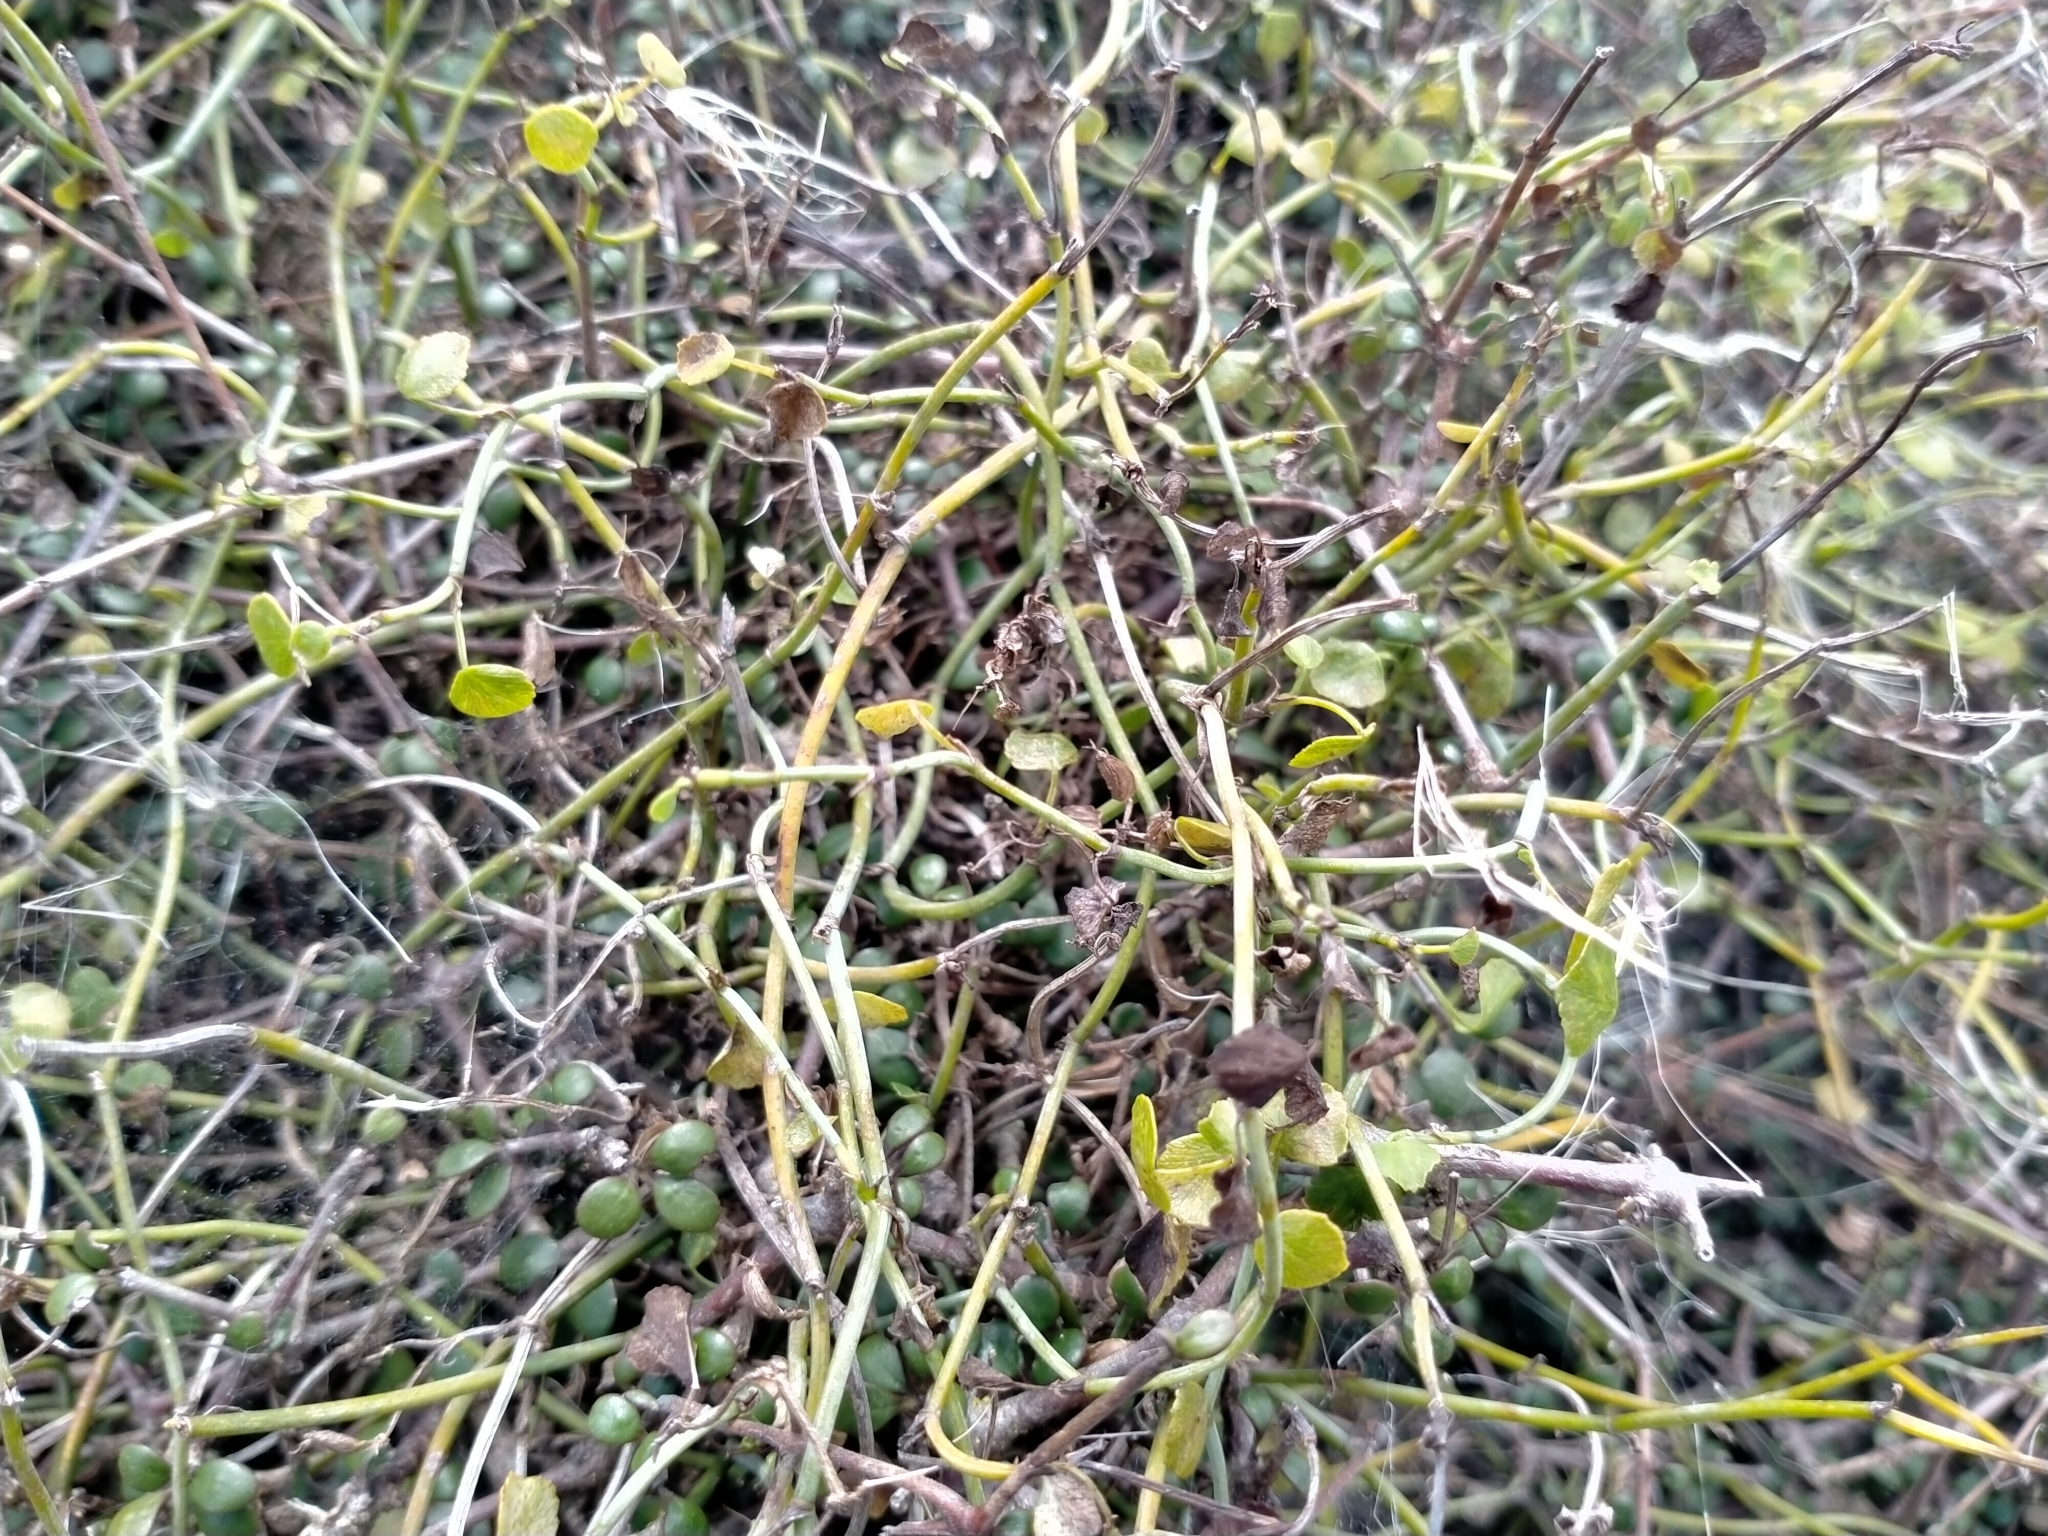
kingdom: Plantae
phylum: Tracheophyta
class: Magnoliopsida
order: Apiales
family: Apiaceae
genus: Scandia
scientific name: Scandia geniculata
